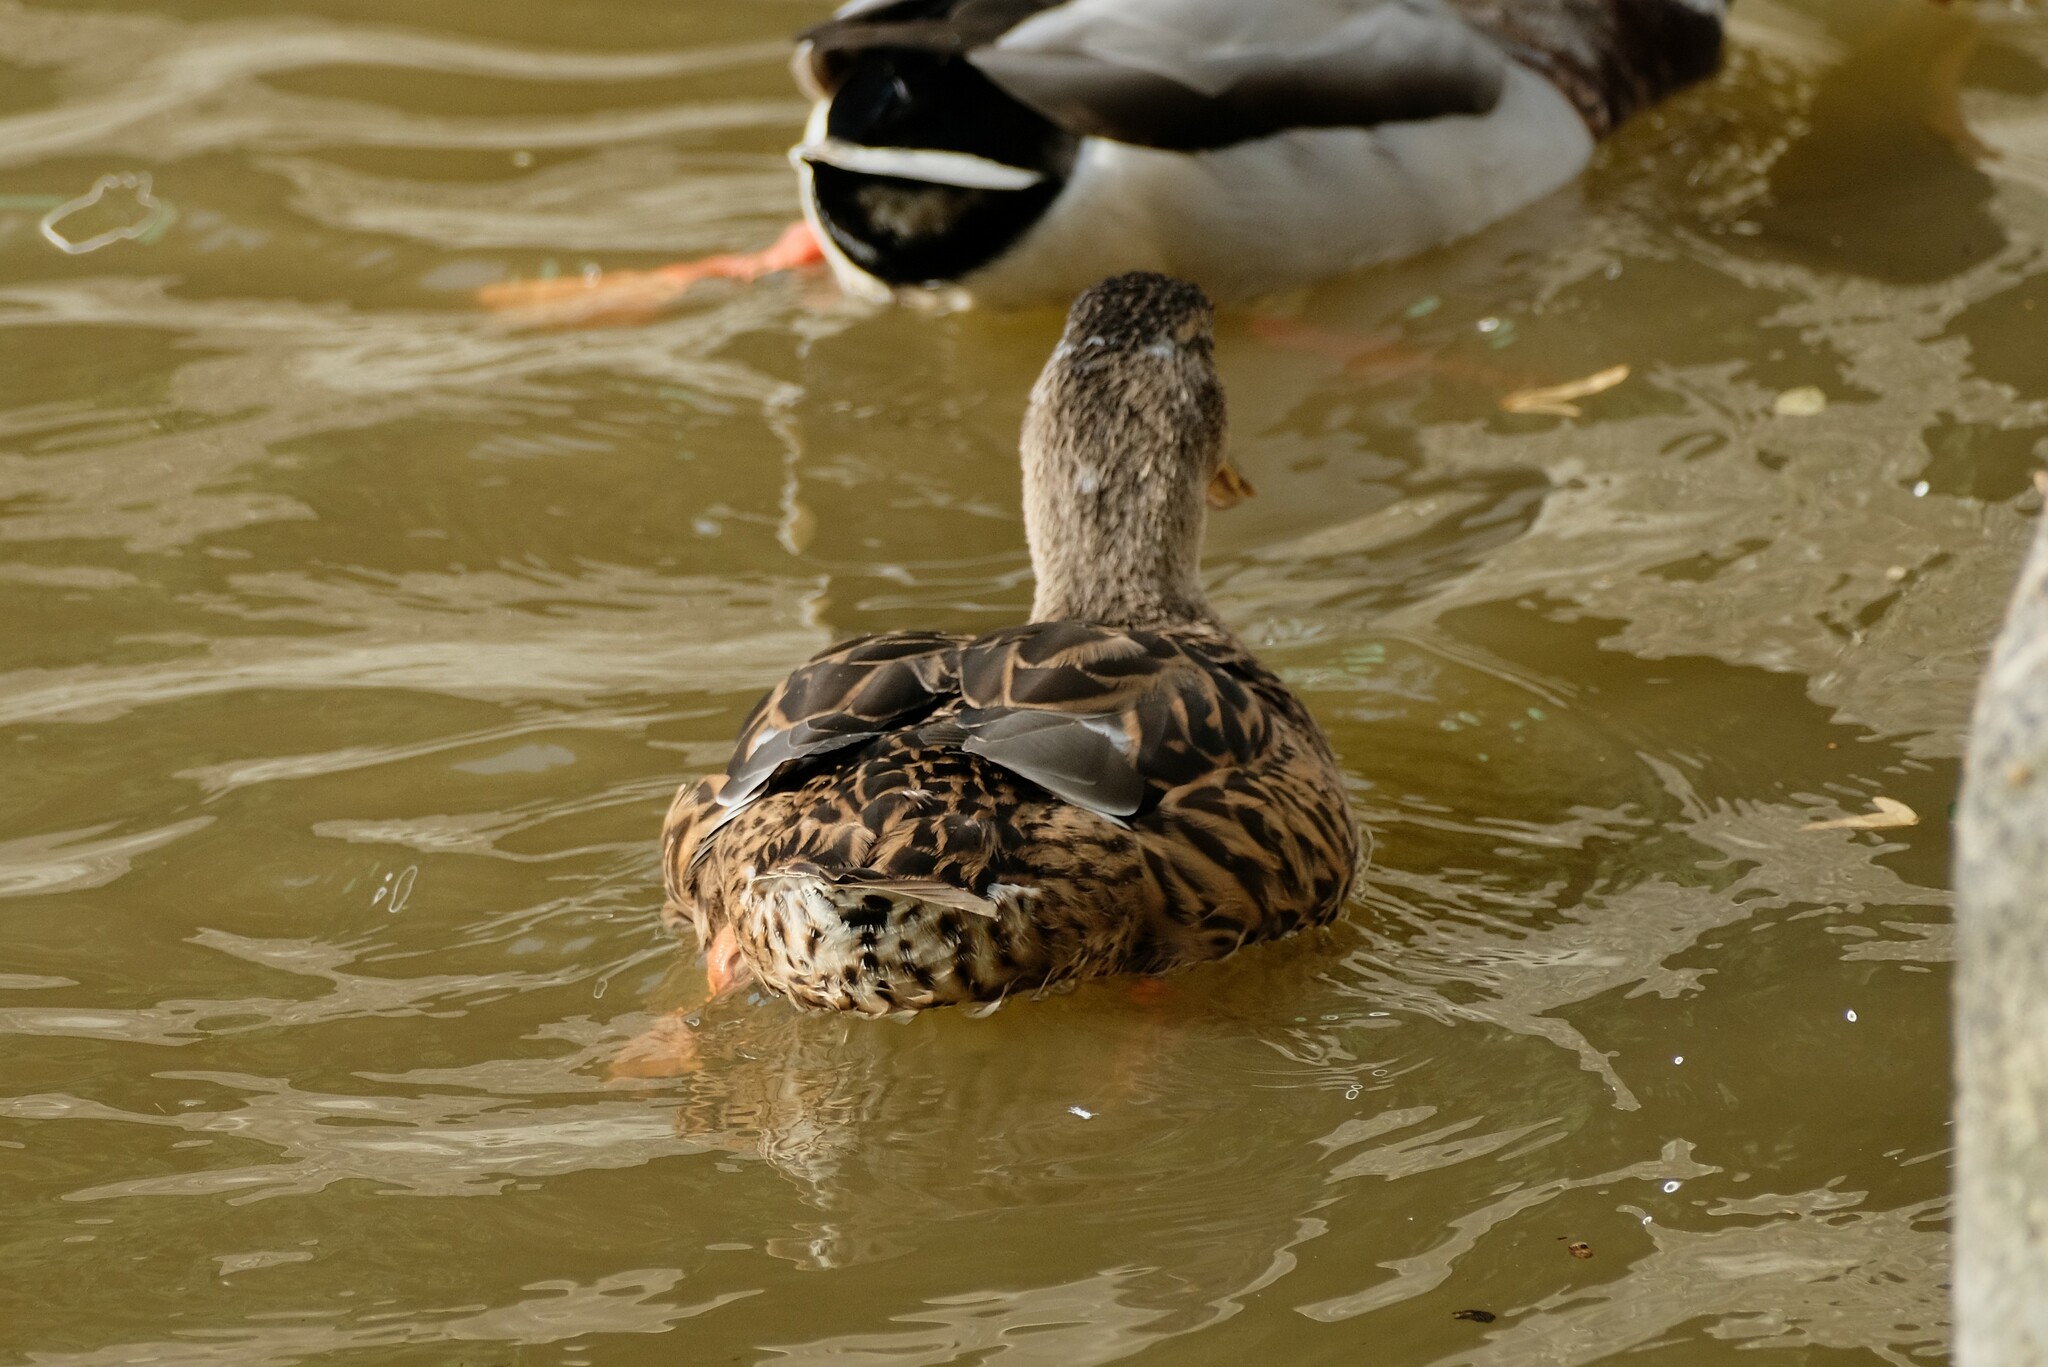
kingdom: Animalia
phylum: Chordata
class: Aves
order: Anseriformes
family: Anatidae
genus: Anas
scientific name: Anas platyrhynchos
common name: Mallard
